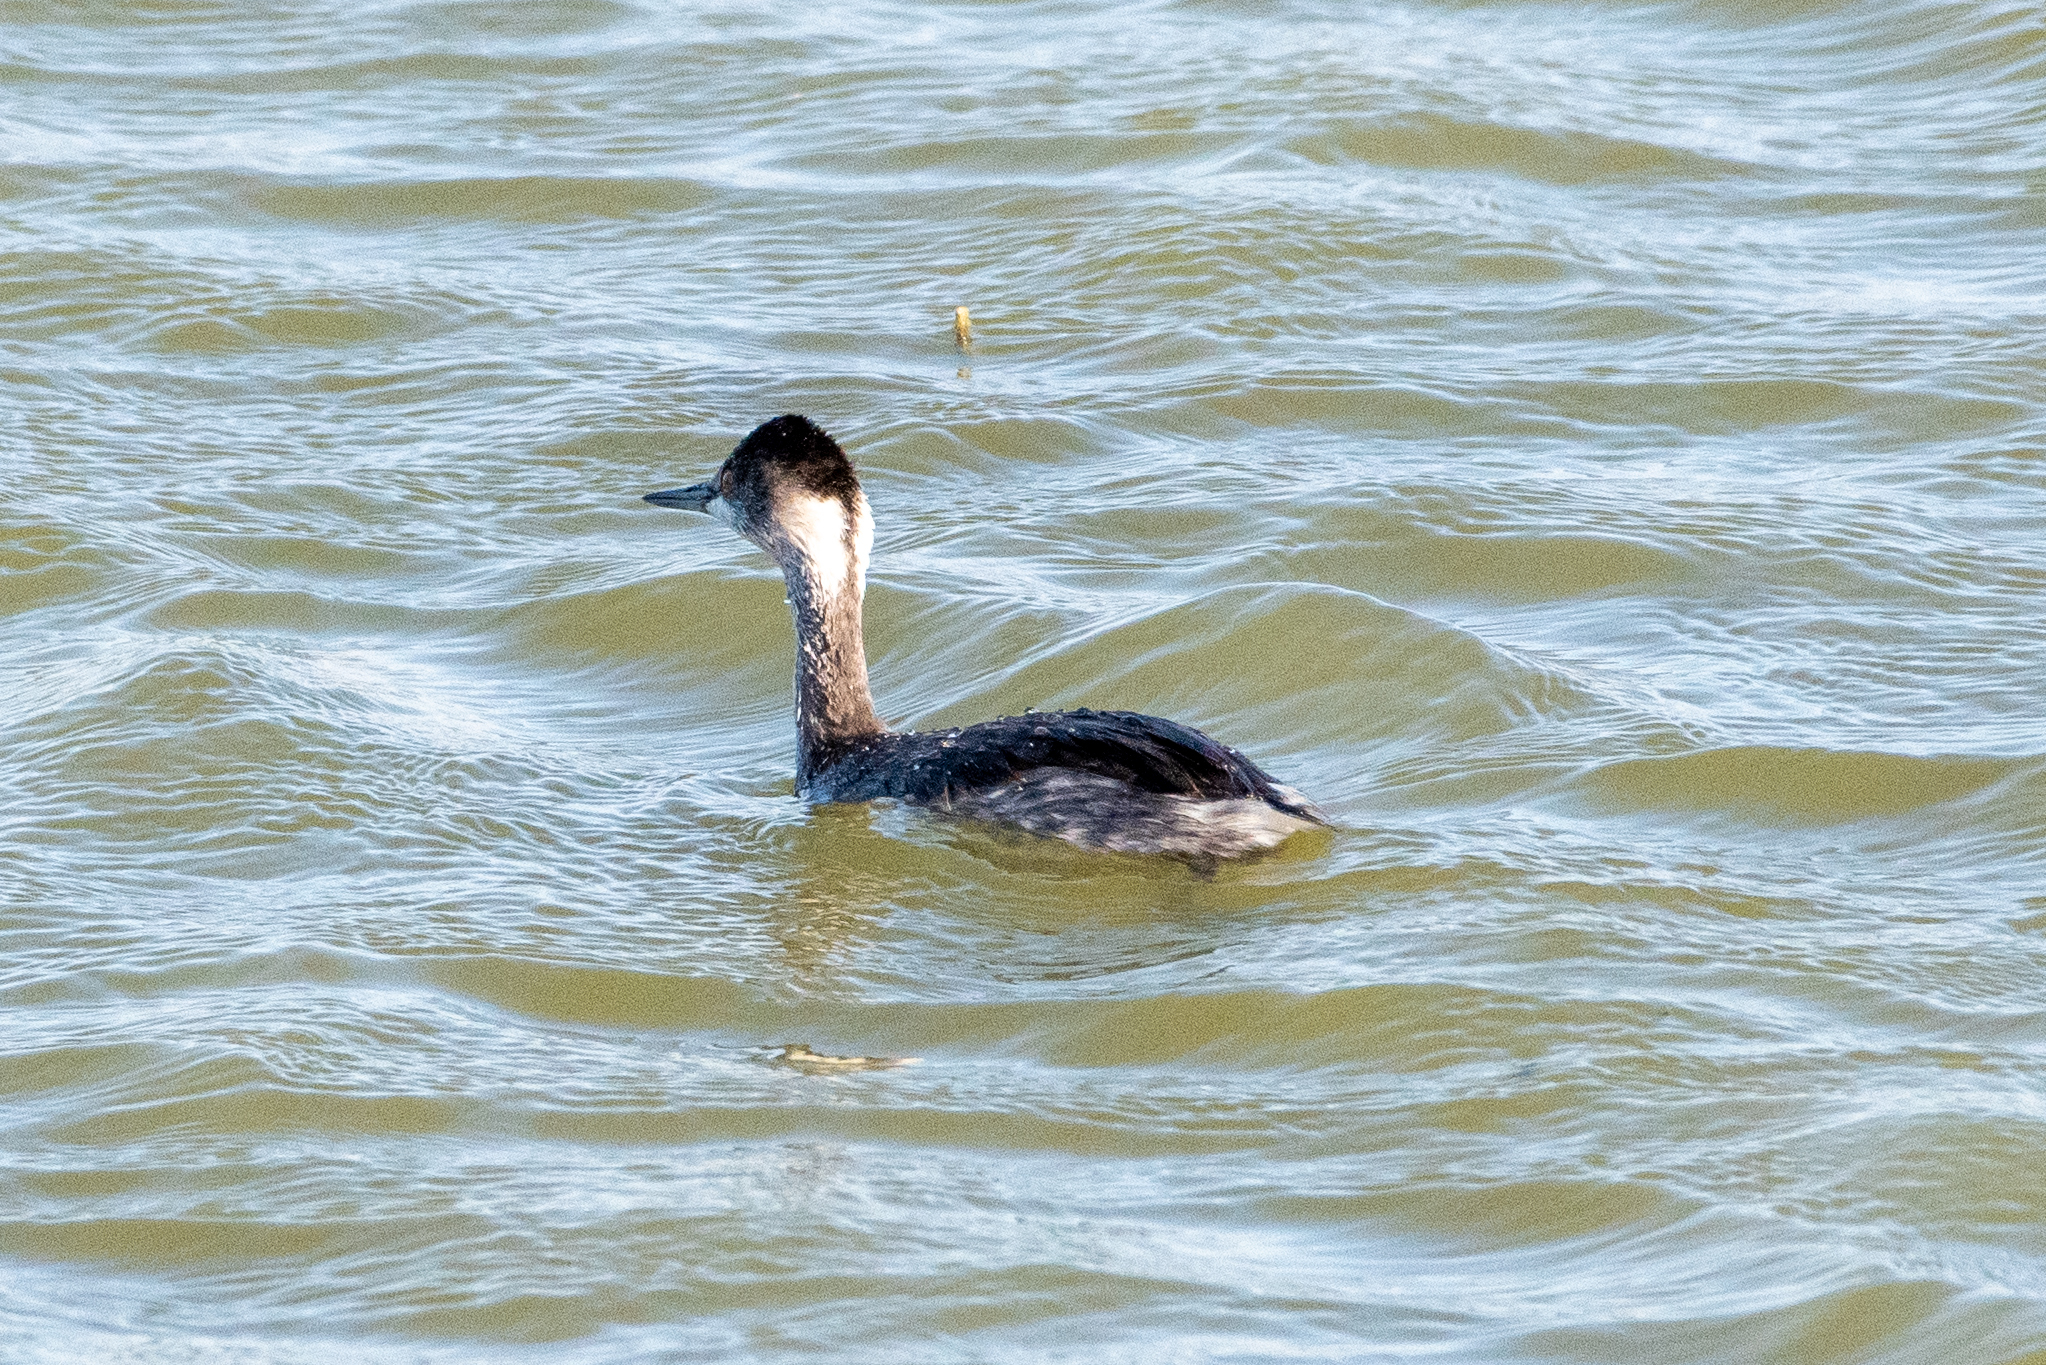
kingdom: Animalia
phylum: Chordata
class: Aves
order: Podicipediformes
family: Podicipedidae
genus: Podiceps
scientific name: Podiceps nigricollis
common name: Black-necked grebe
